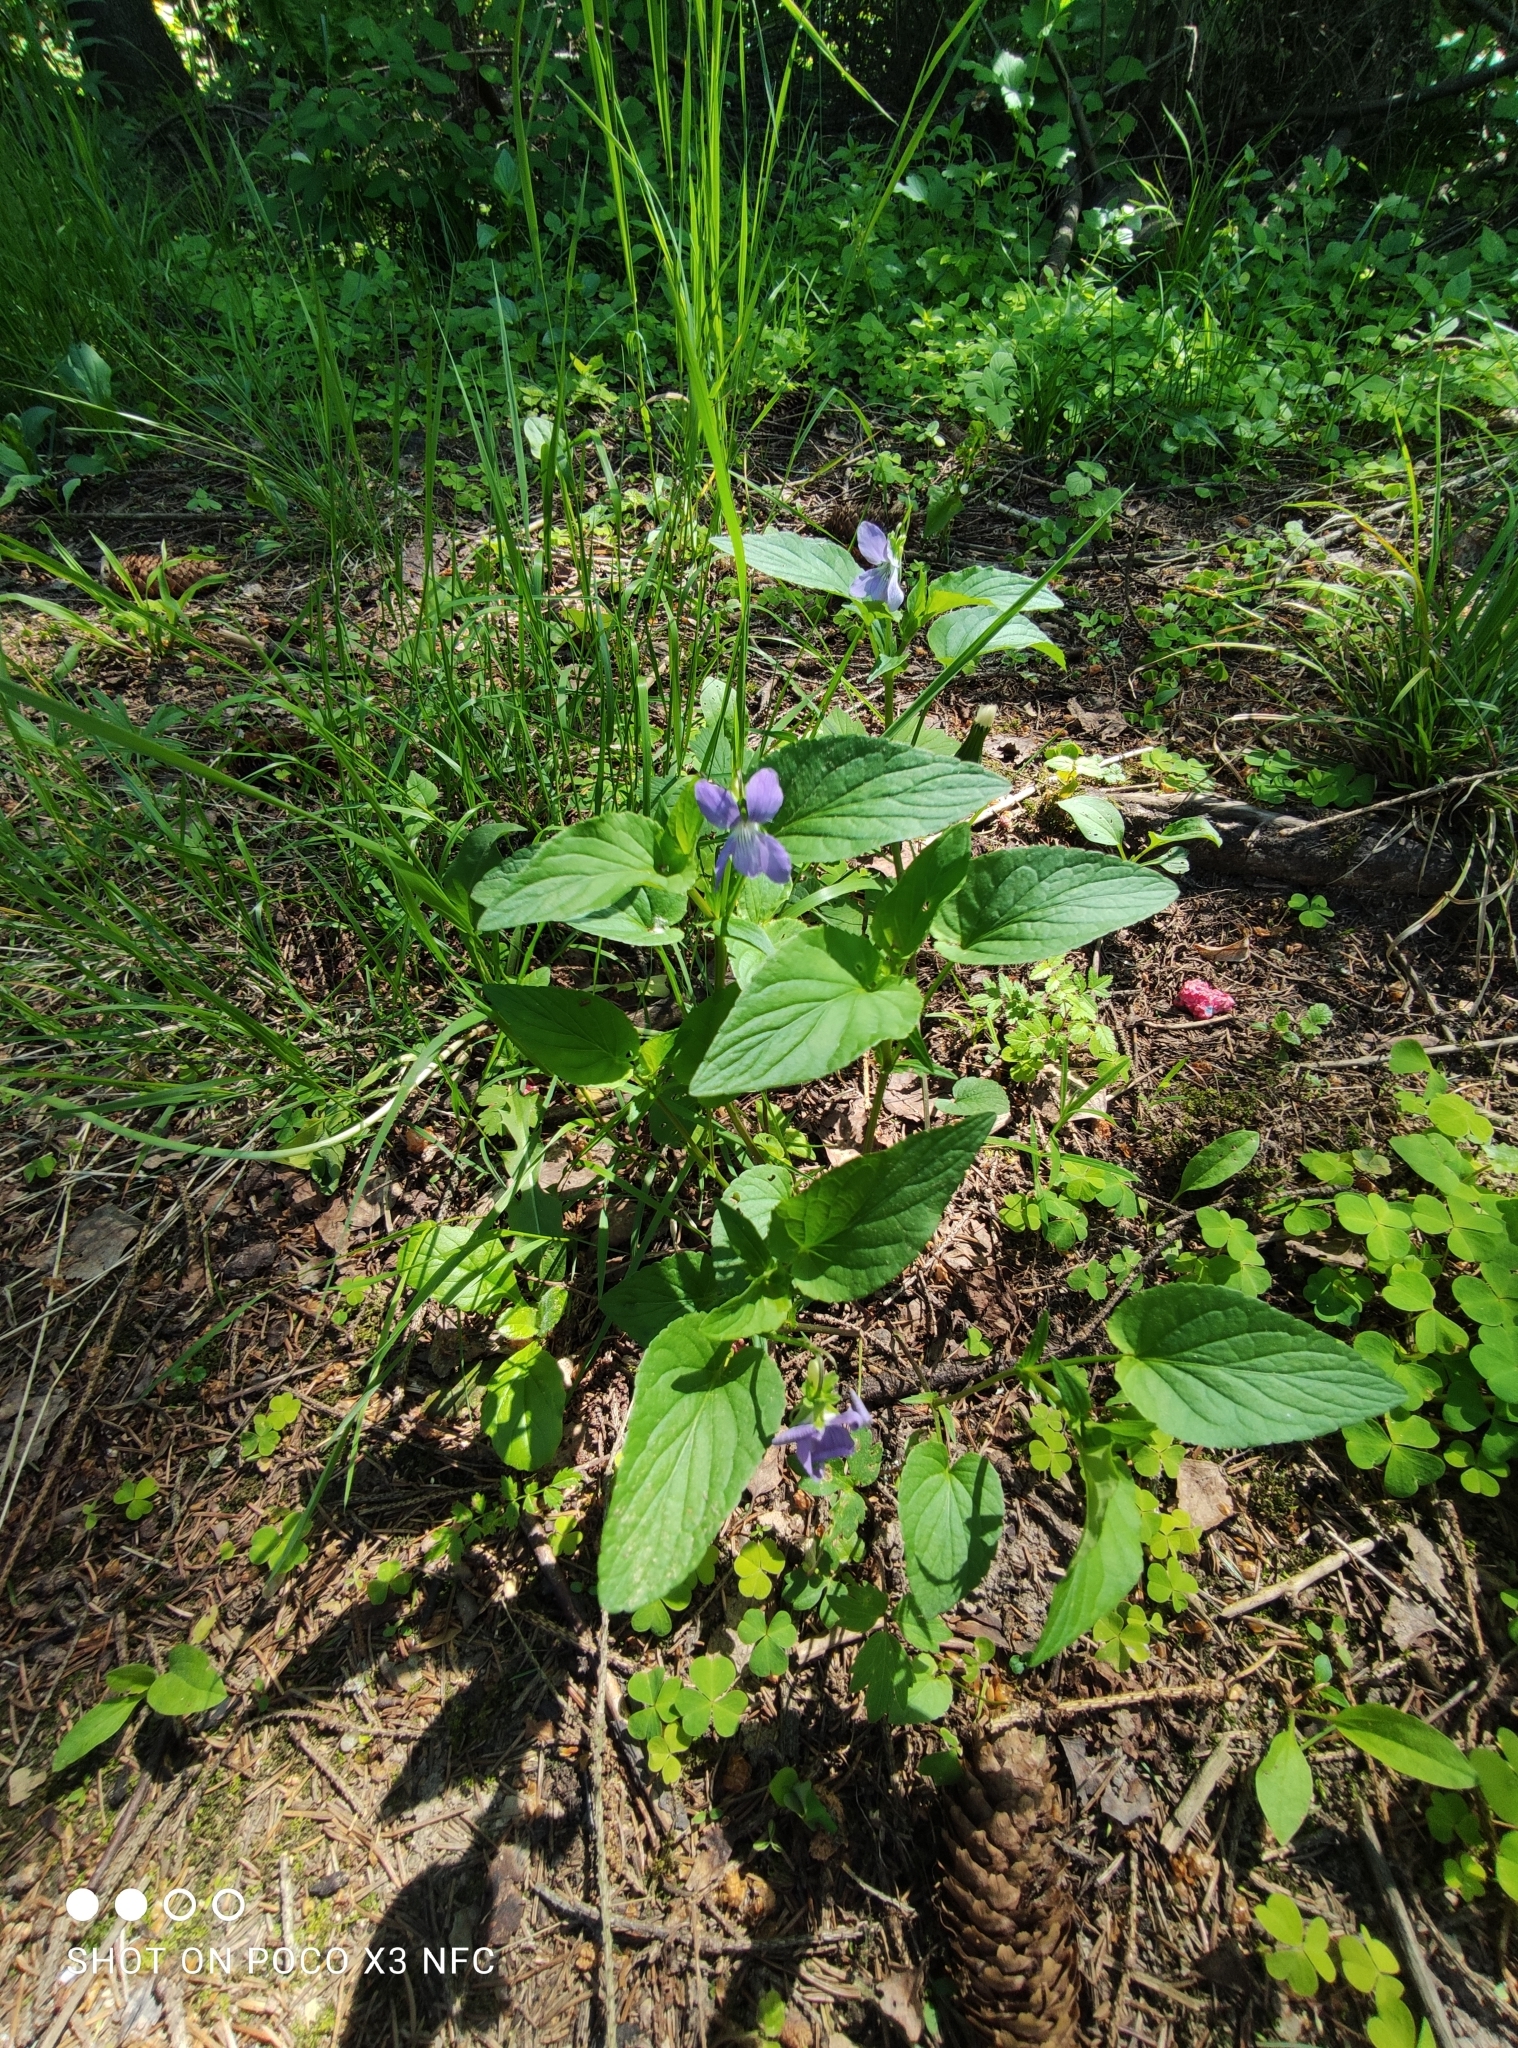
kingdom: Plantae
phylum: Tracheophyta
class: Magnoliopsida
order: Malpighiales
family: Violaceae
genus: Viola
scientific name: Viola canina
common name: Heath dog-violet
